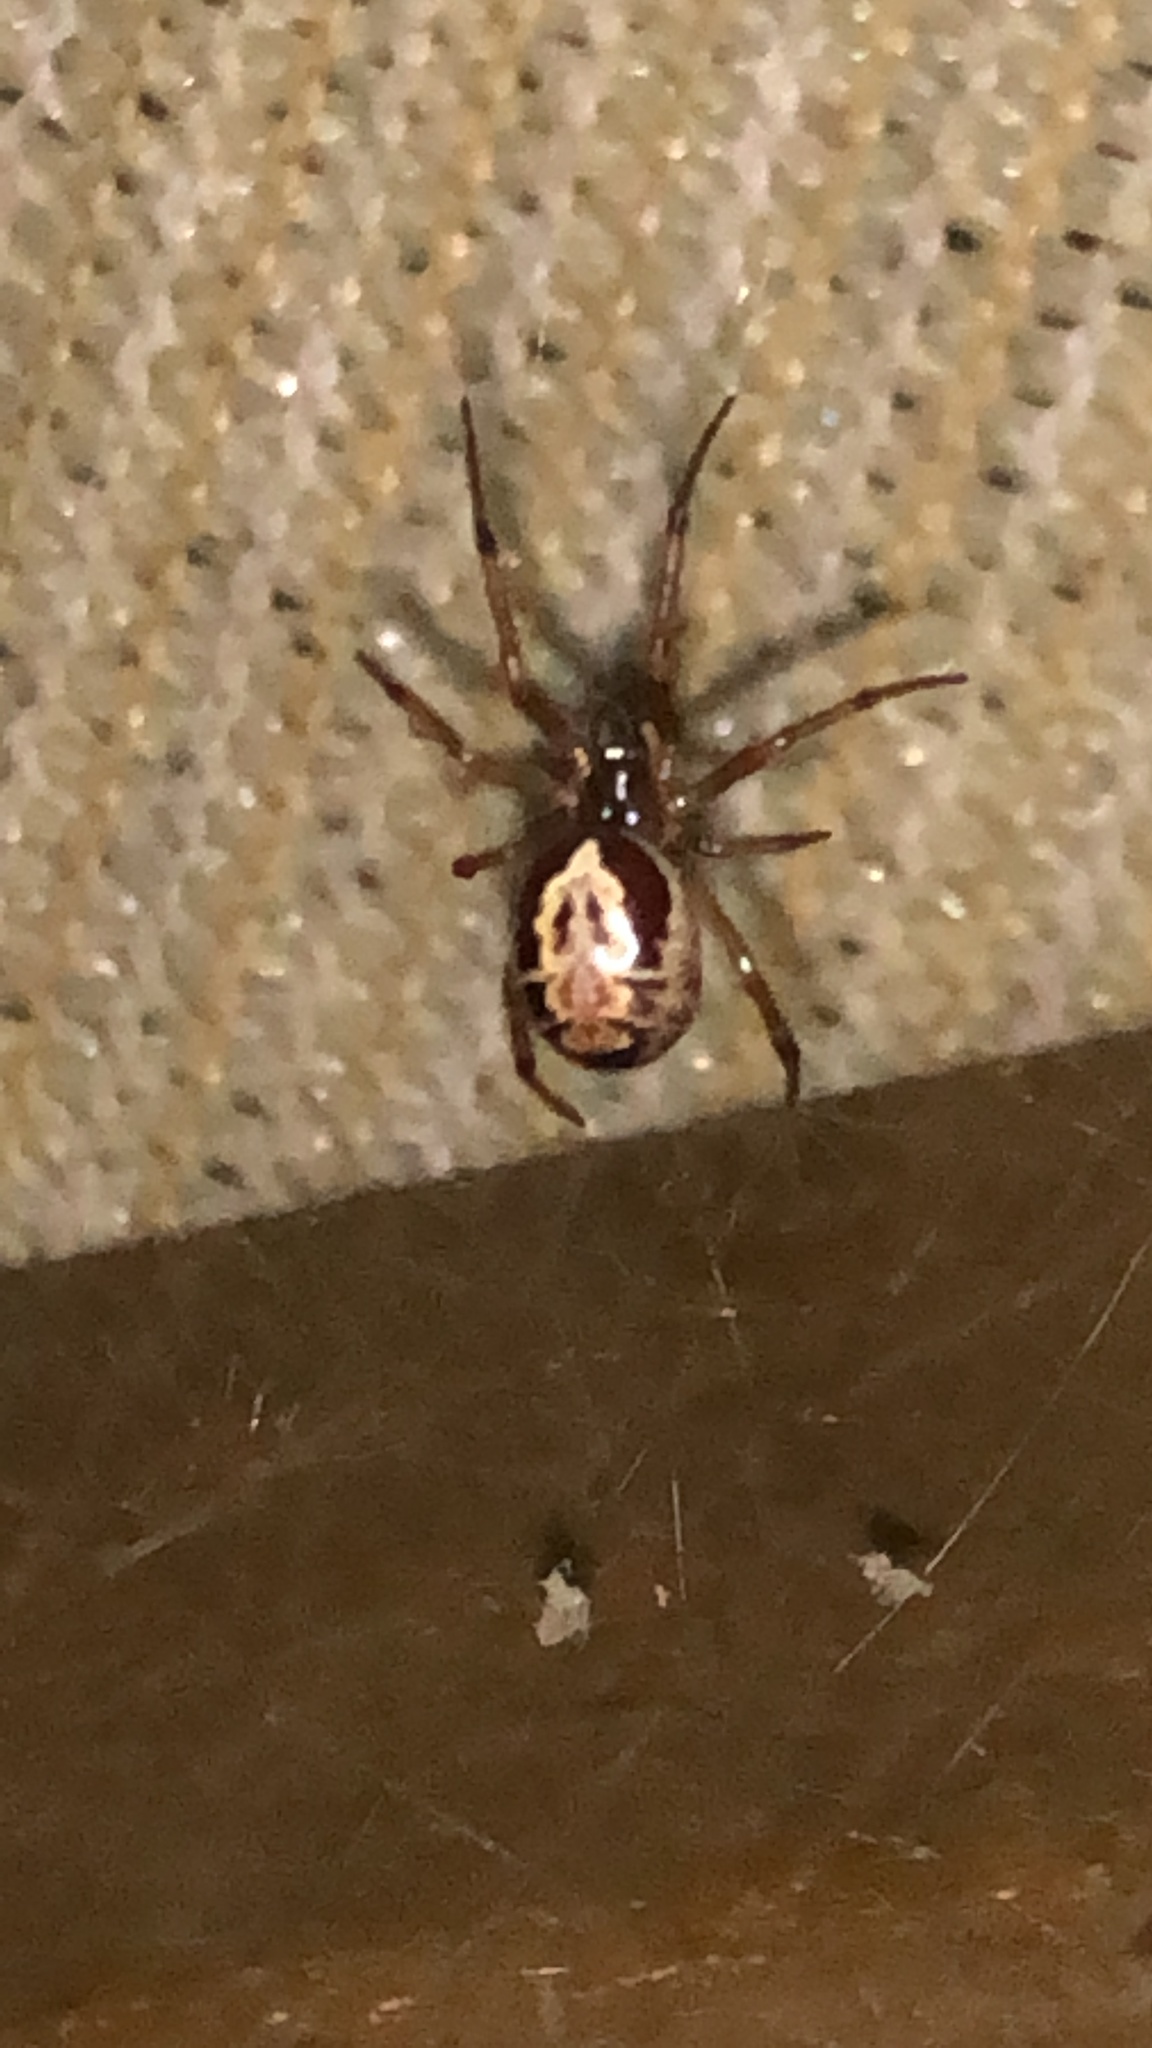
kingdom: Animalia
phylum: Arthropoda
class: Arachnida
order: Araneae
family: Theridiidae
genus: Steatoda
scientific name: Steatoda nobilis
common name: Cobweb weaver
